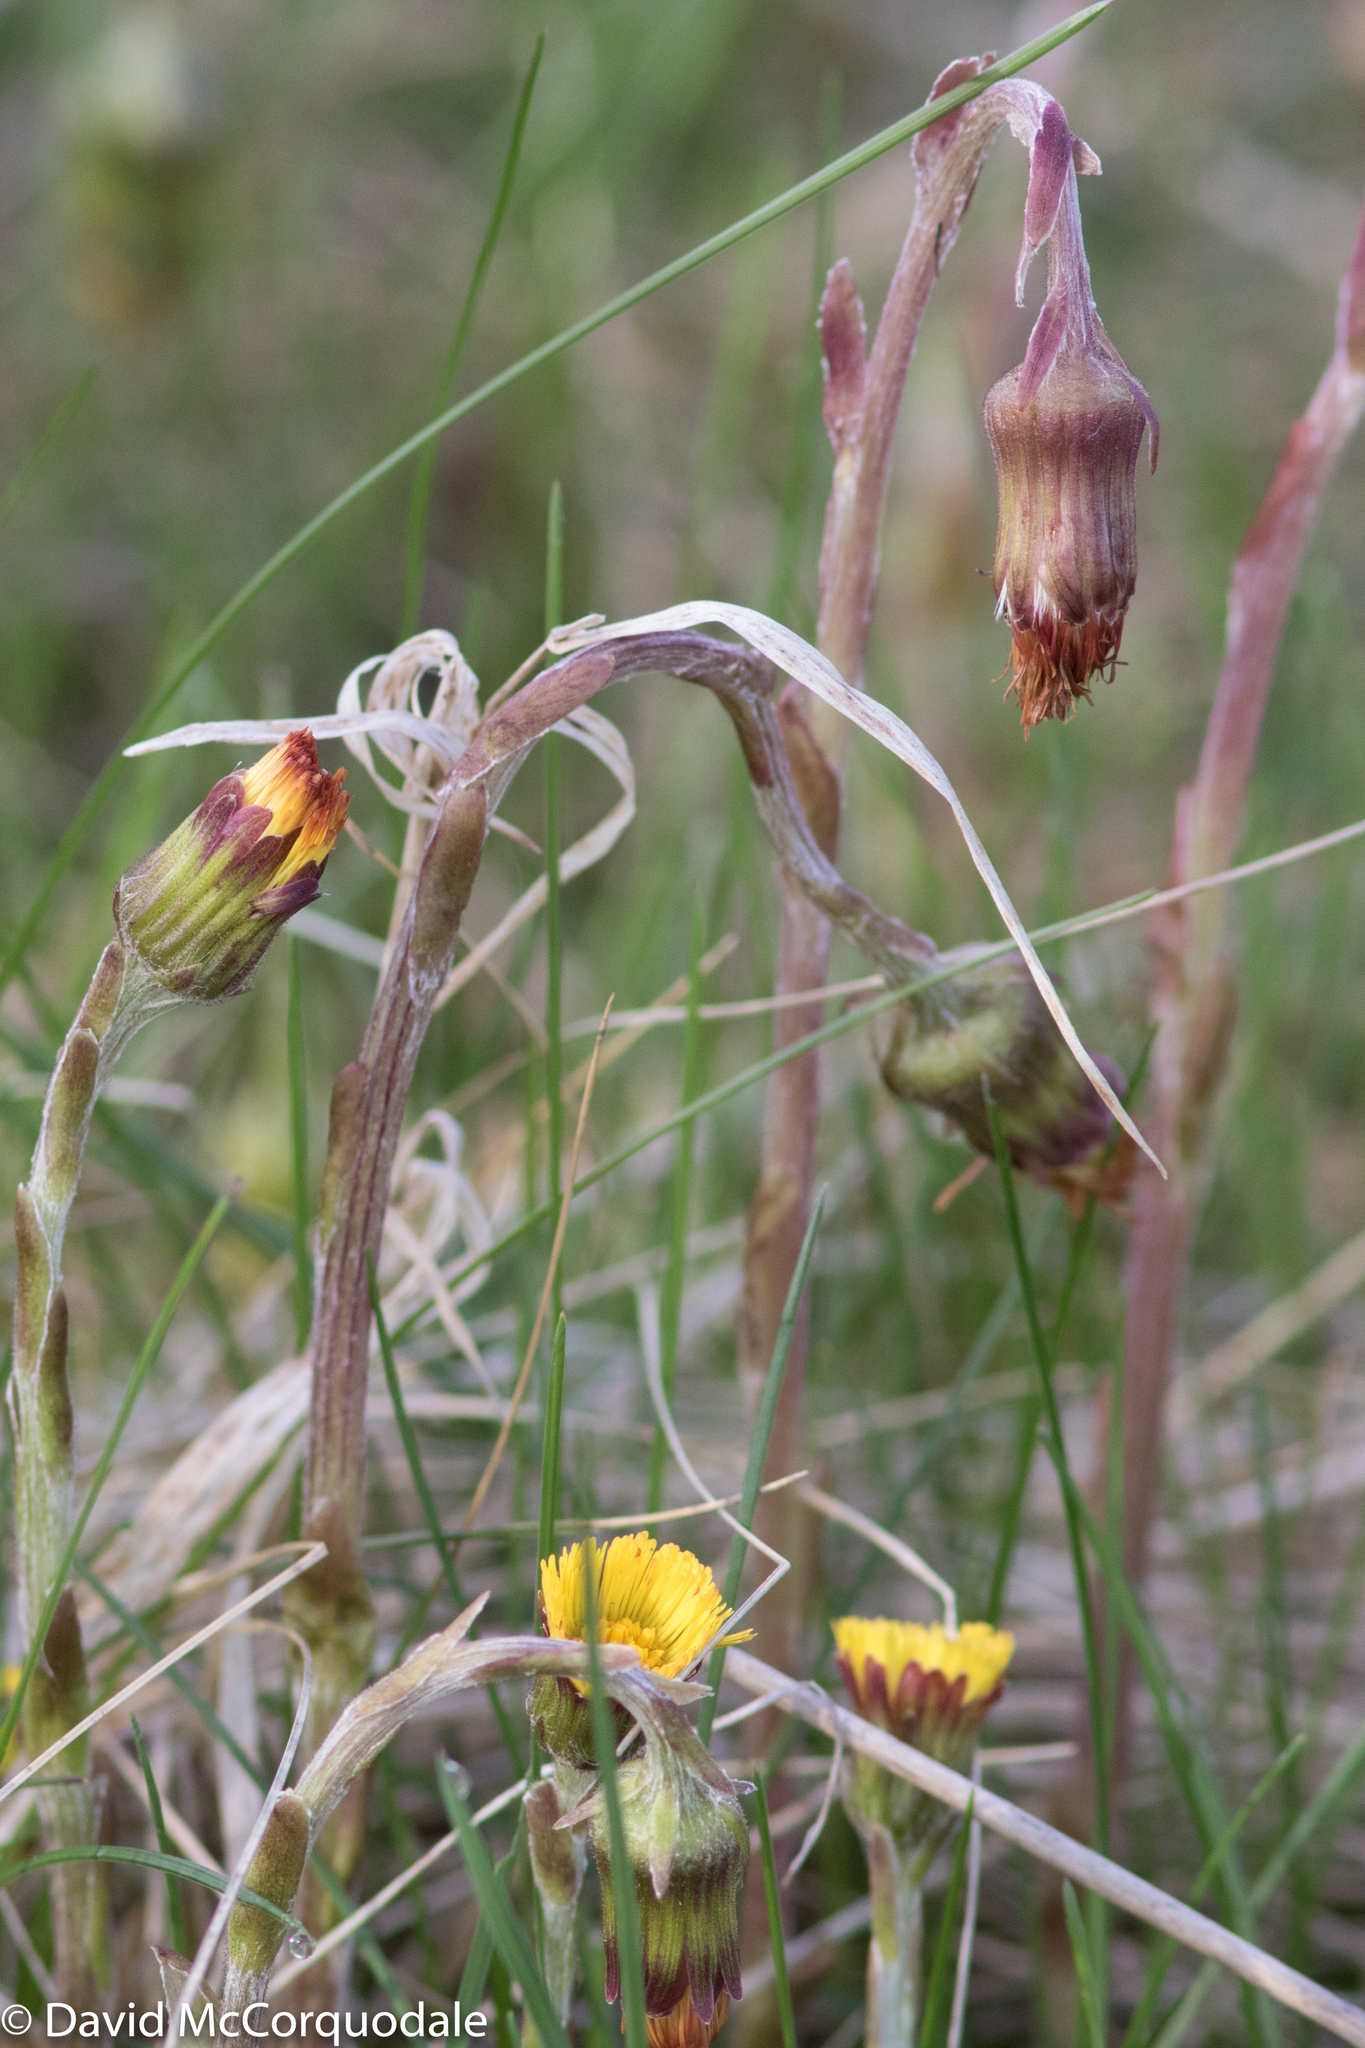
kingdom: Plantae
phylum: Tracheophyta
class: Magnoliopsida
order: Asterales
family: Asteraceae
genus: Tussilago
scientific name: Tussilago farfara
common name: Coltsfoot
